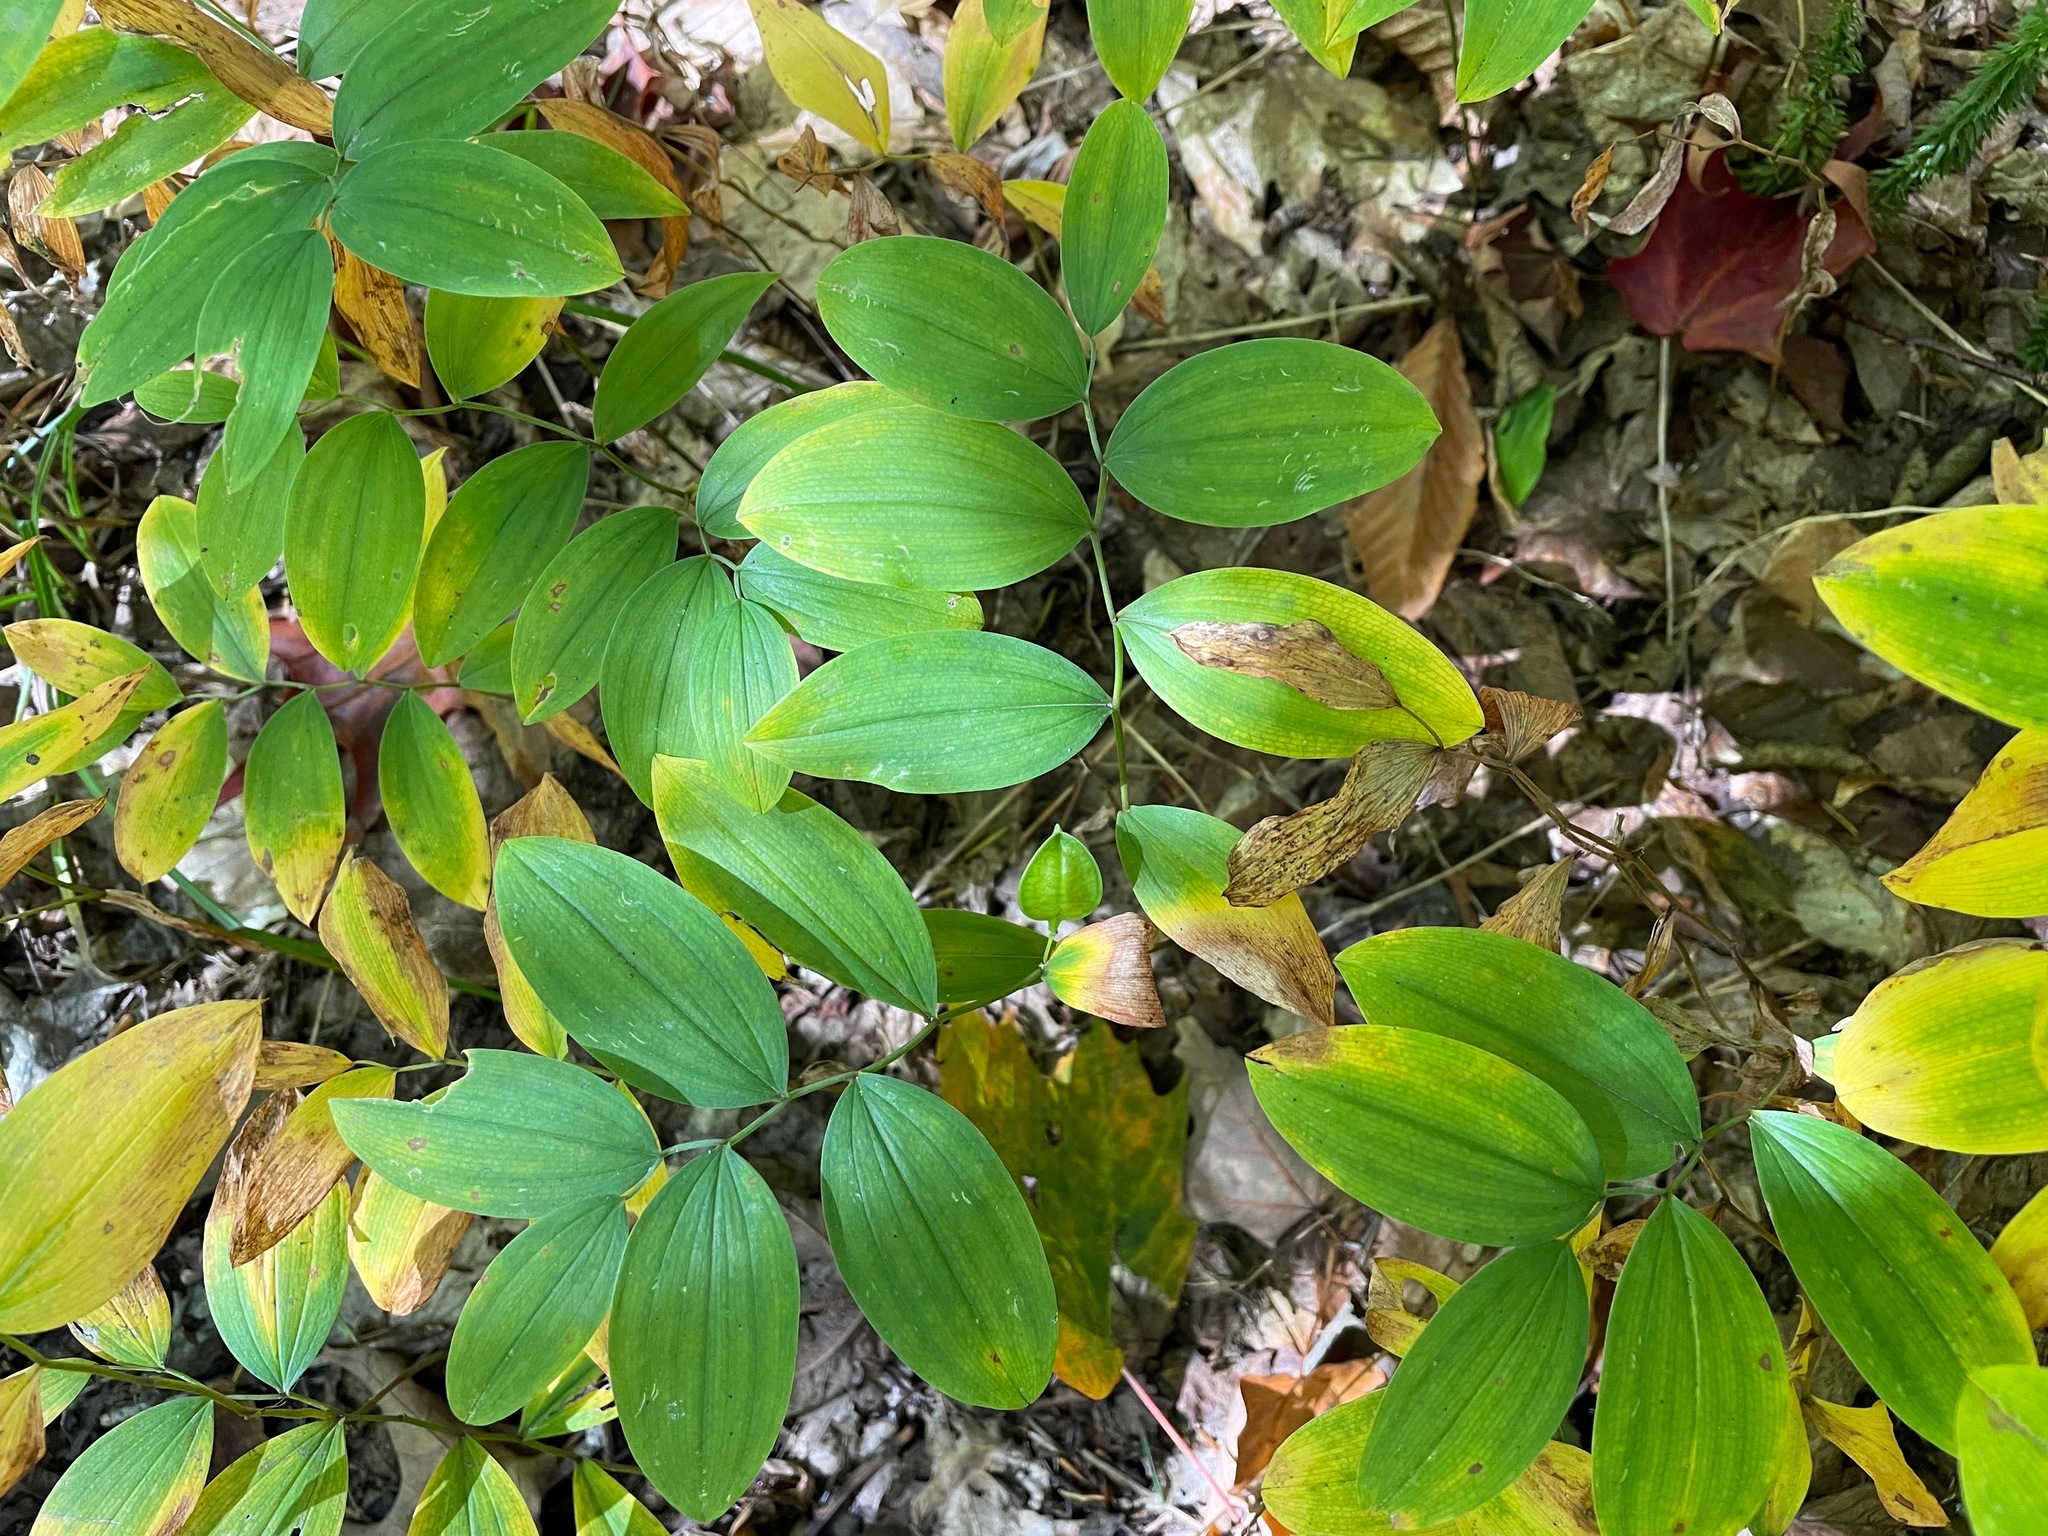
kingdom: Plantae
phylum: Tracheophyta
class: Liliopsida
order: Liliales
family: Colchicaceae
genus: Uvularia
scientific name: Uvularia sessilifolia
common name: Straw-lily
